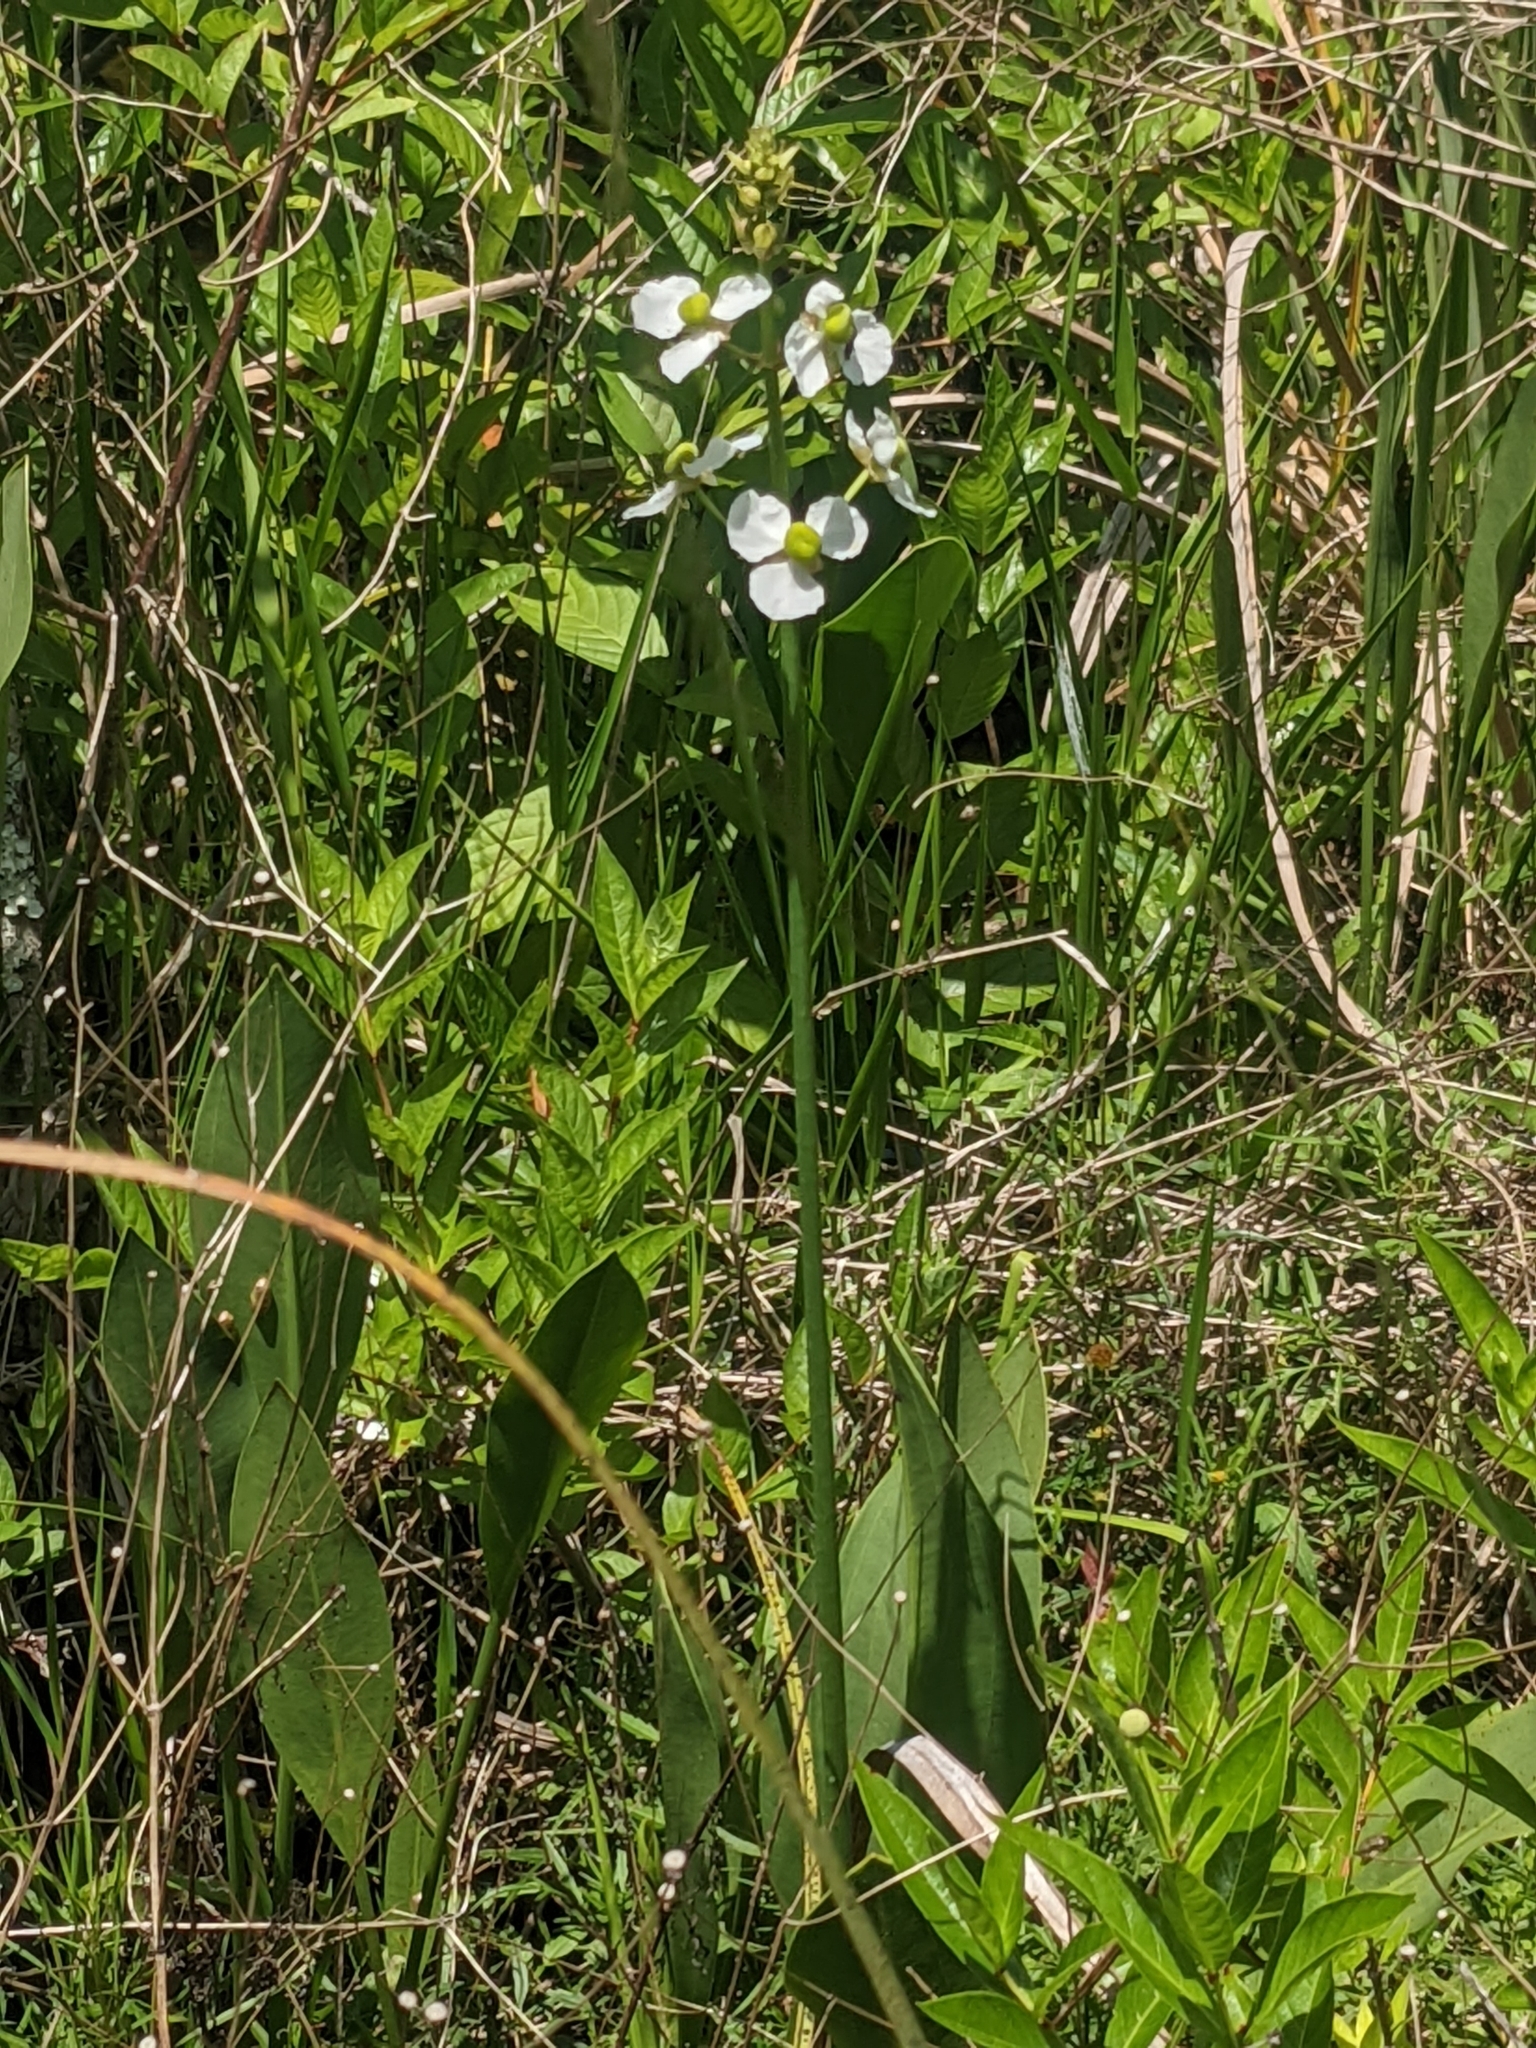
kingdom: Plantae
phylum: Tracheophyta
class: Liliopsida
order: Alismatales
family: Alismataceae
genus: Sagittaria
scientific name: Sagittaria lancifolia
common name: Lance-leaf arrowhead
